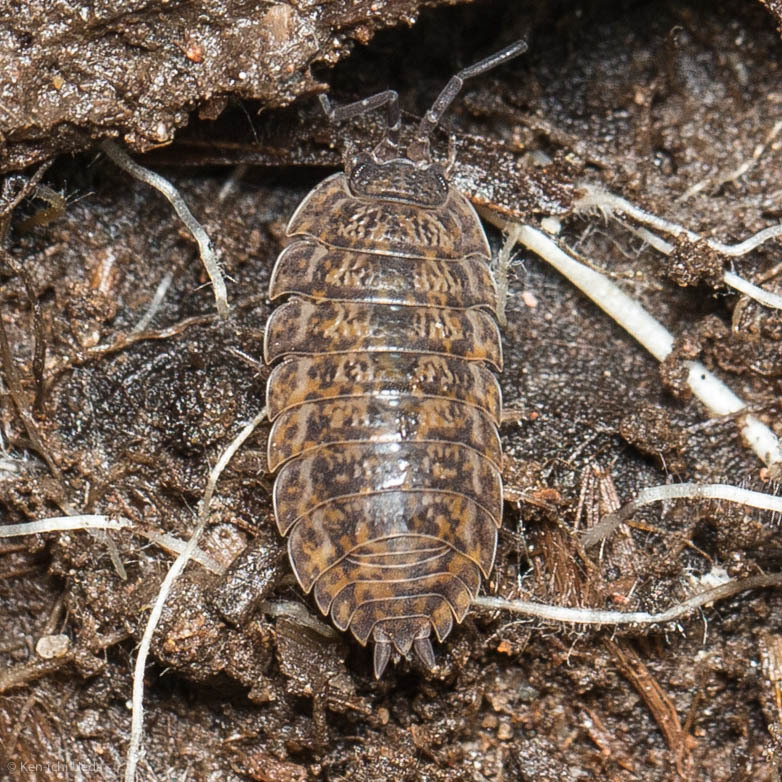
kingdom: Animalia
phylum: Arthropoda
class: Malacostraca
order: Isopoda
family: Trachelipodidae
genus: Trachelipus
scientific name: Trachelipus rathkii
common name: Isopod
